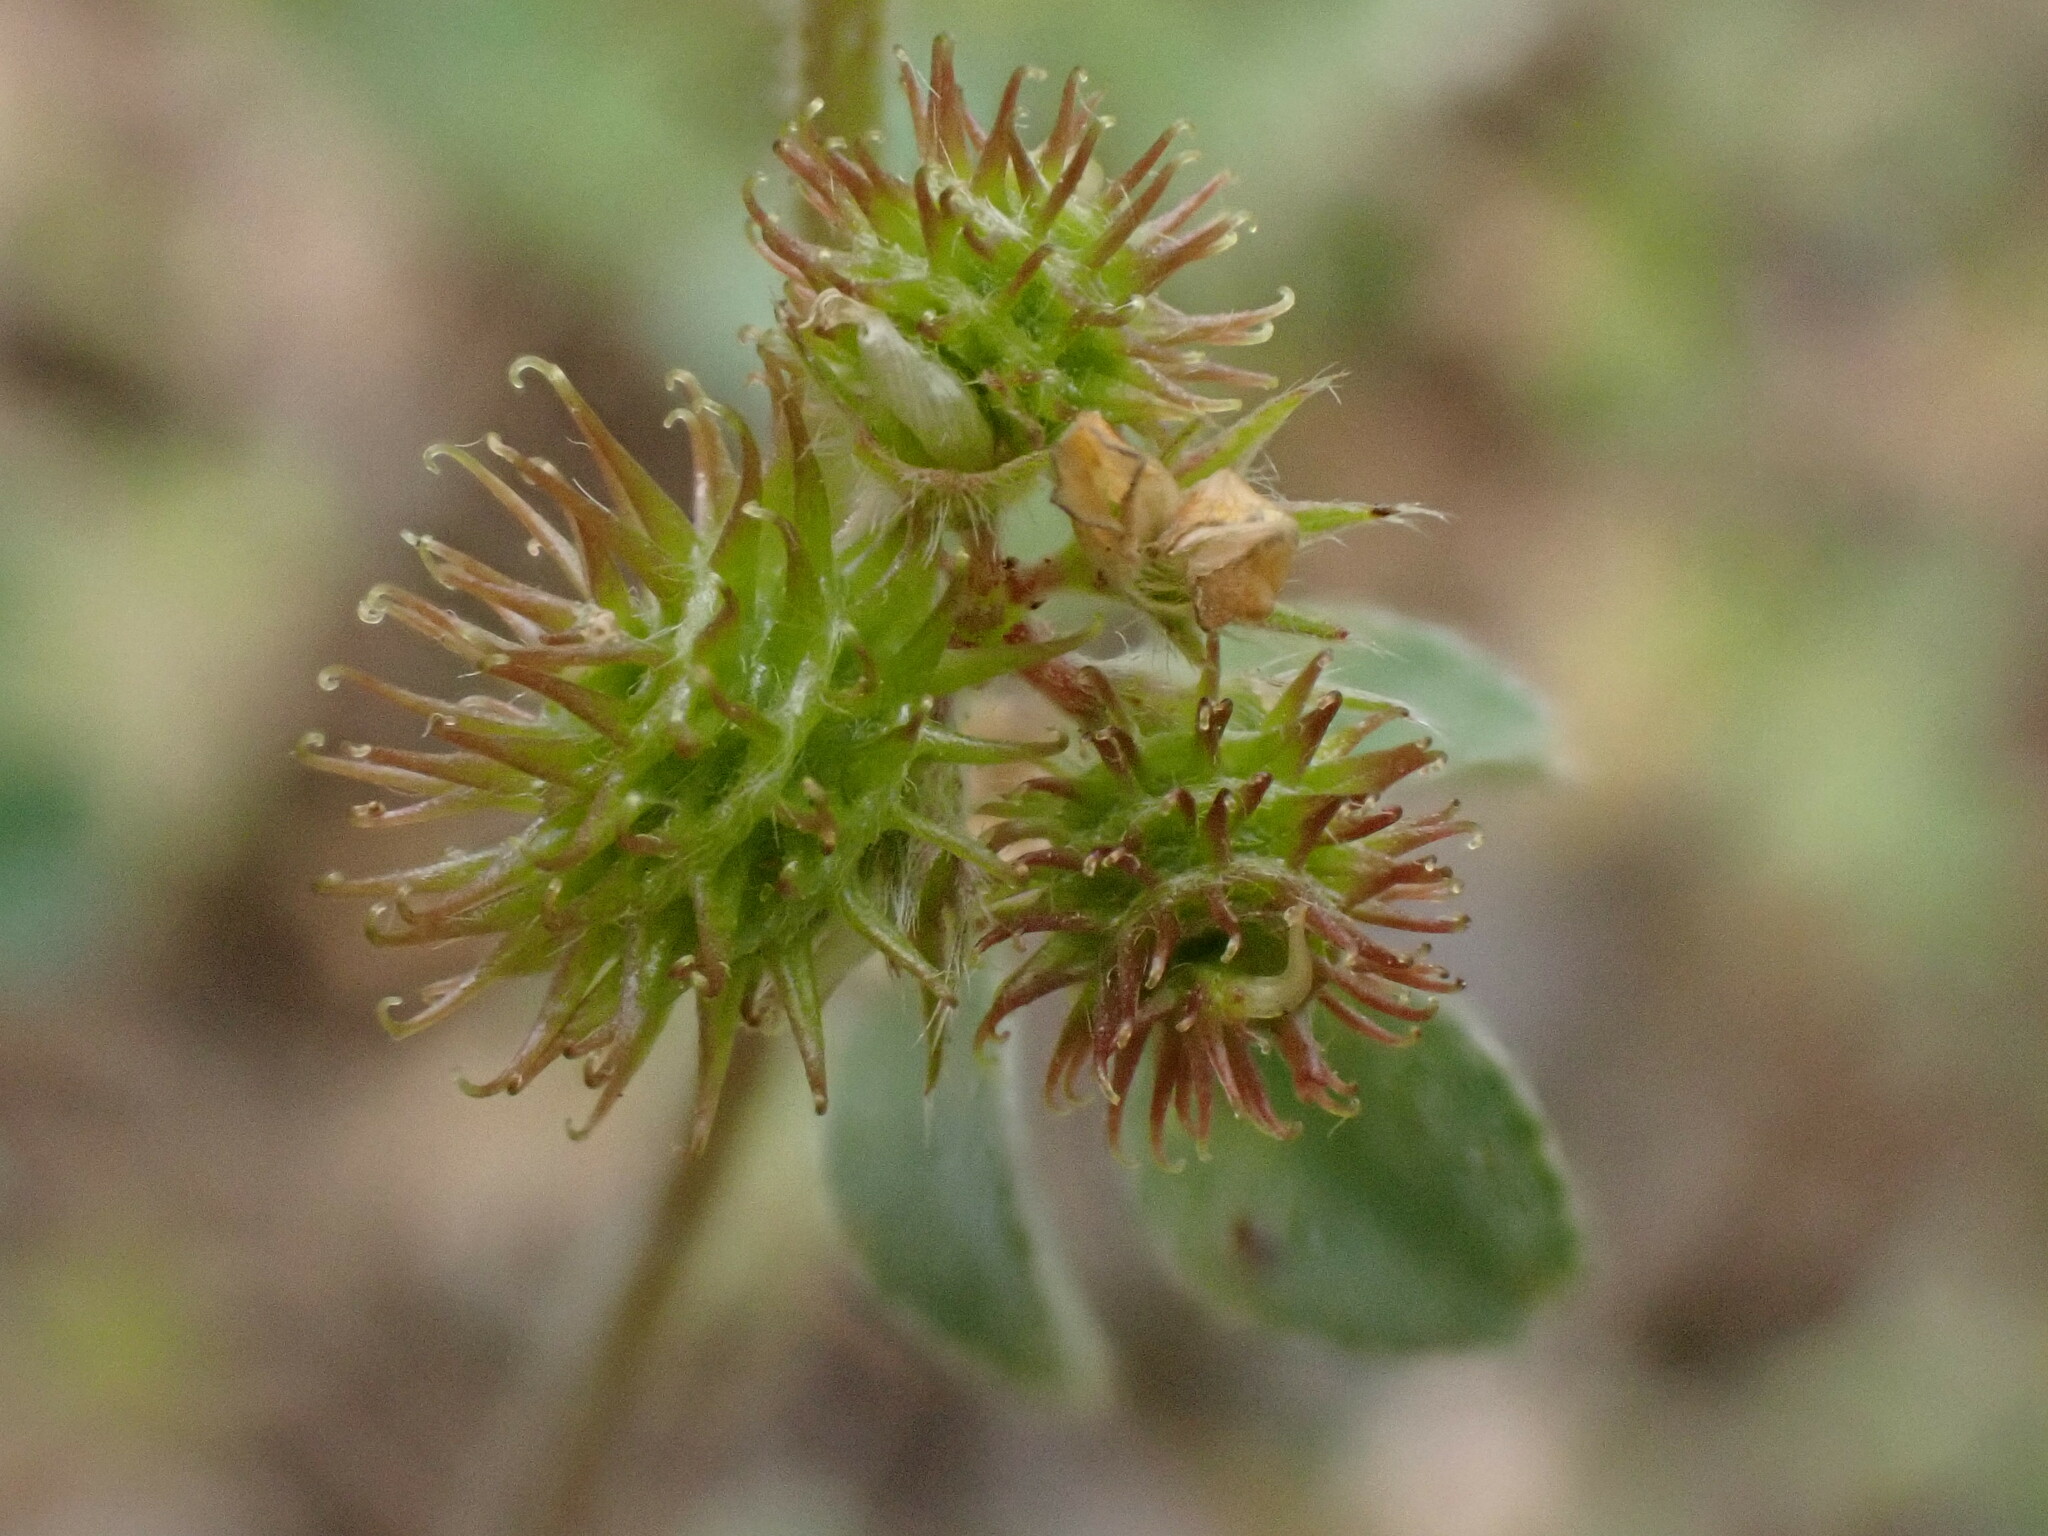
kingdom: Plantae
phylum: Tracheophyta
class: Magnoliopsida
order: Fabales
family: Fabaceae
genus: Medicago
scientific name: Medicago minima
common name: Little bur-clover
